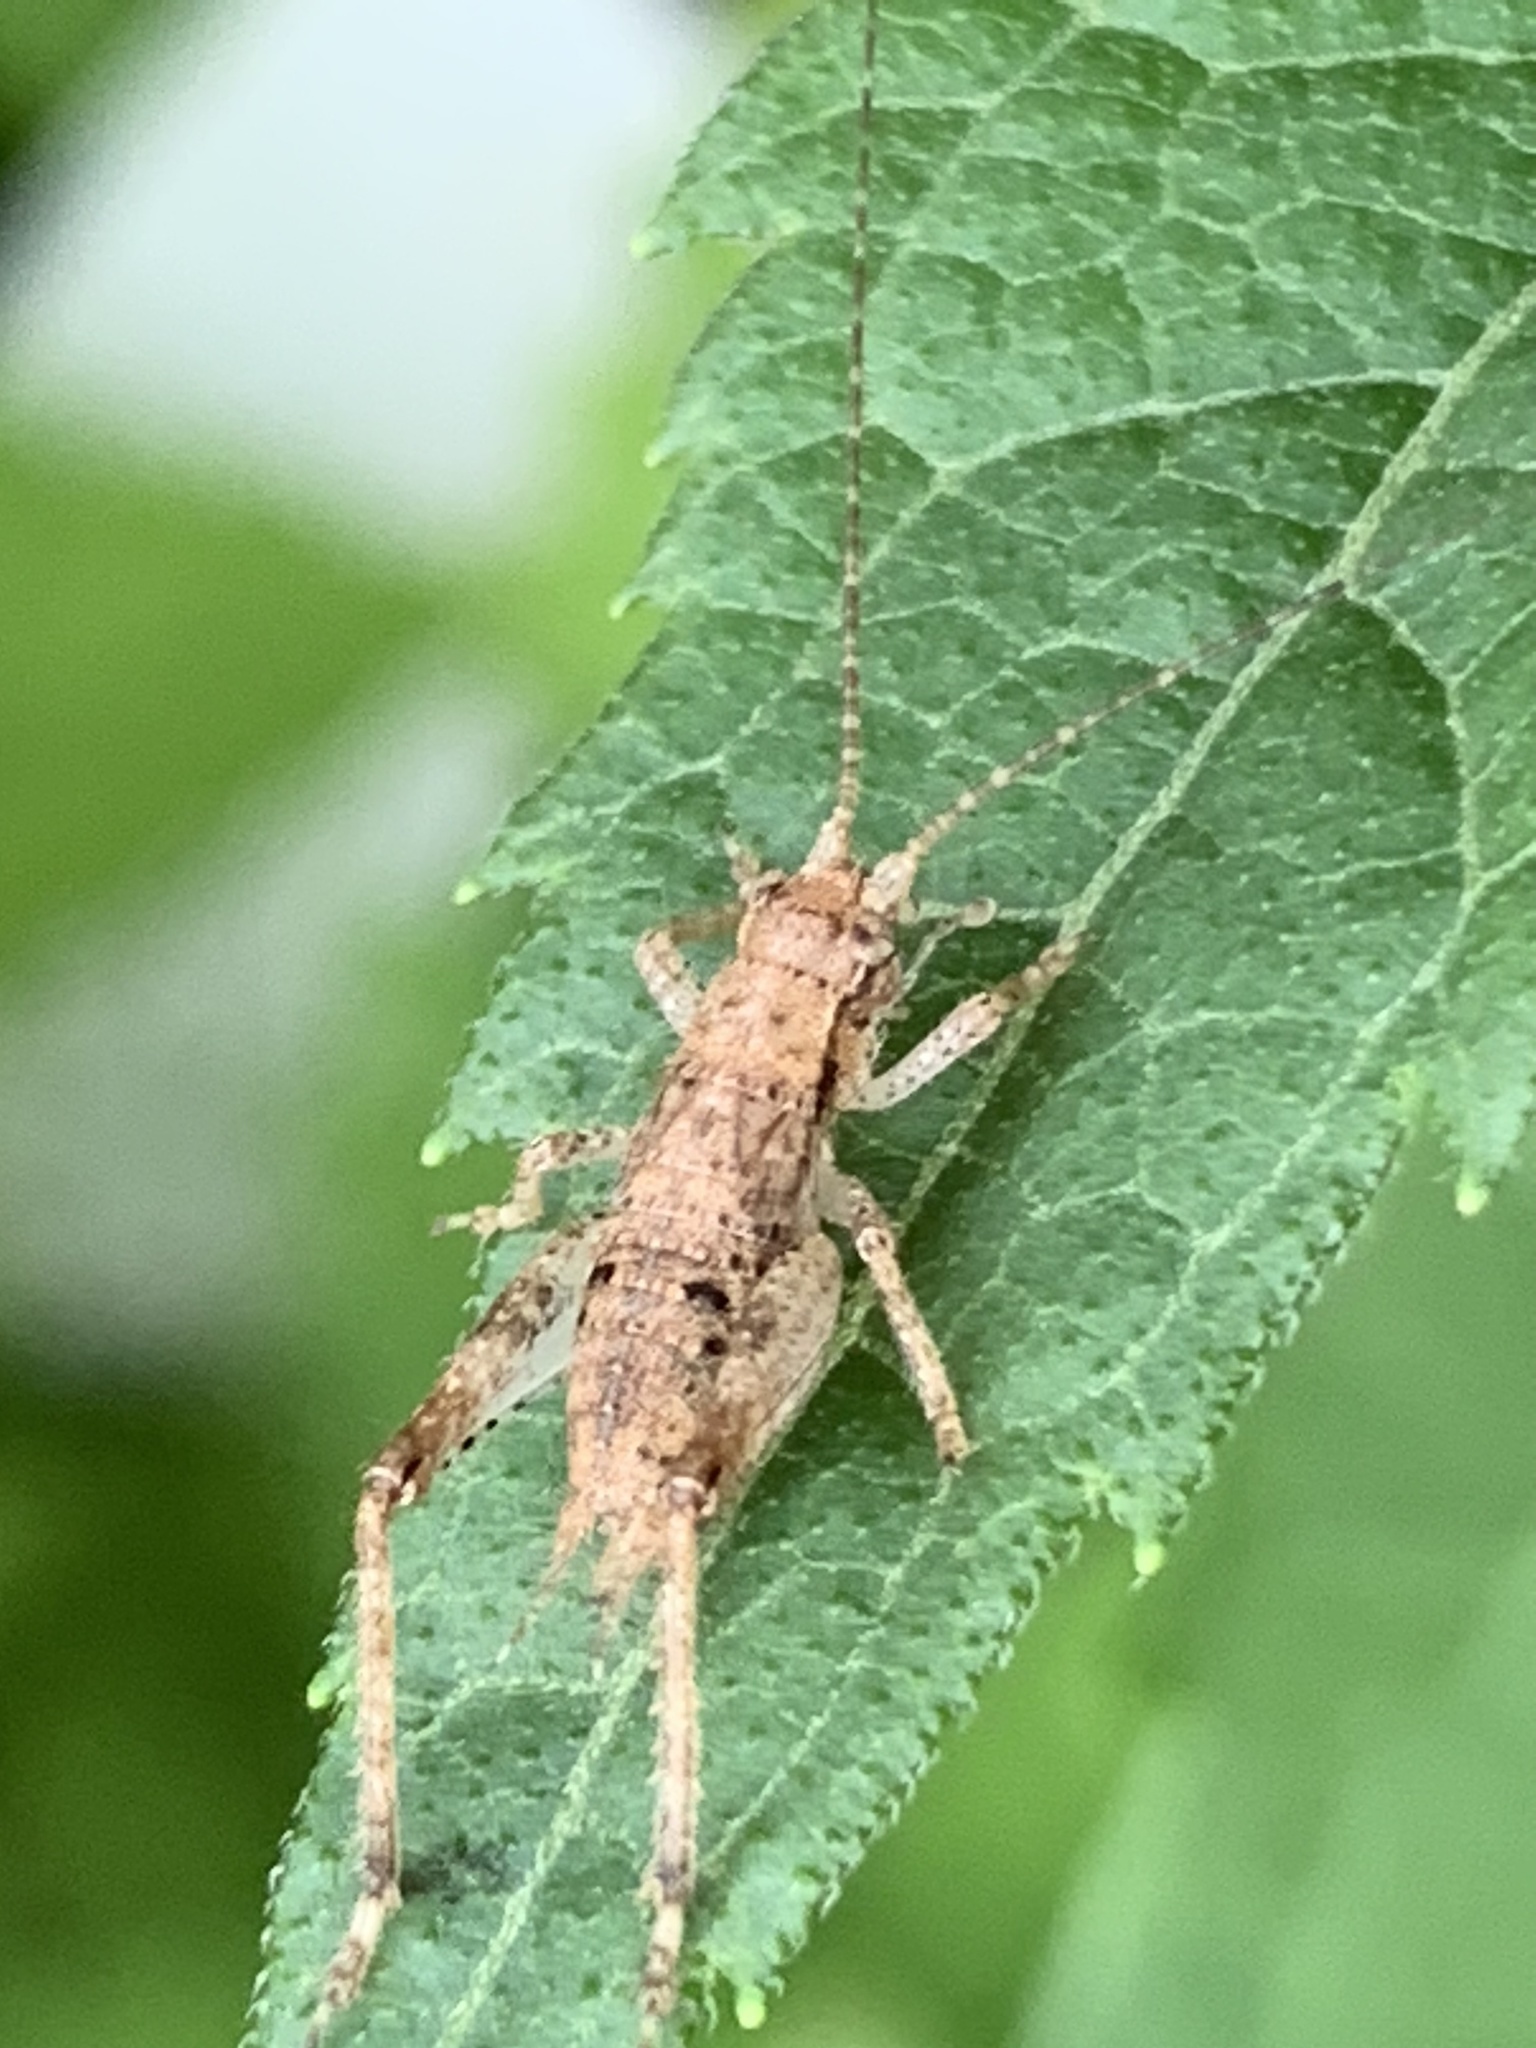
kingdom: Animalia
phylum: Arthropoda
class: Insecta
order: Orthoptera
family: Gryllidae
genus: Hapithus
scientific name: Hapithus saltator
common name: Jumping bush cricket
